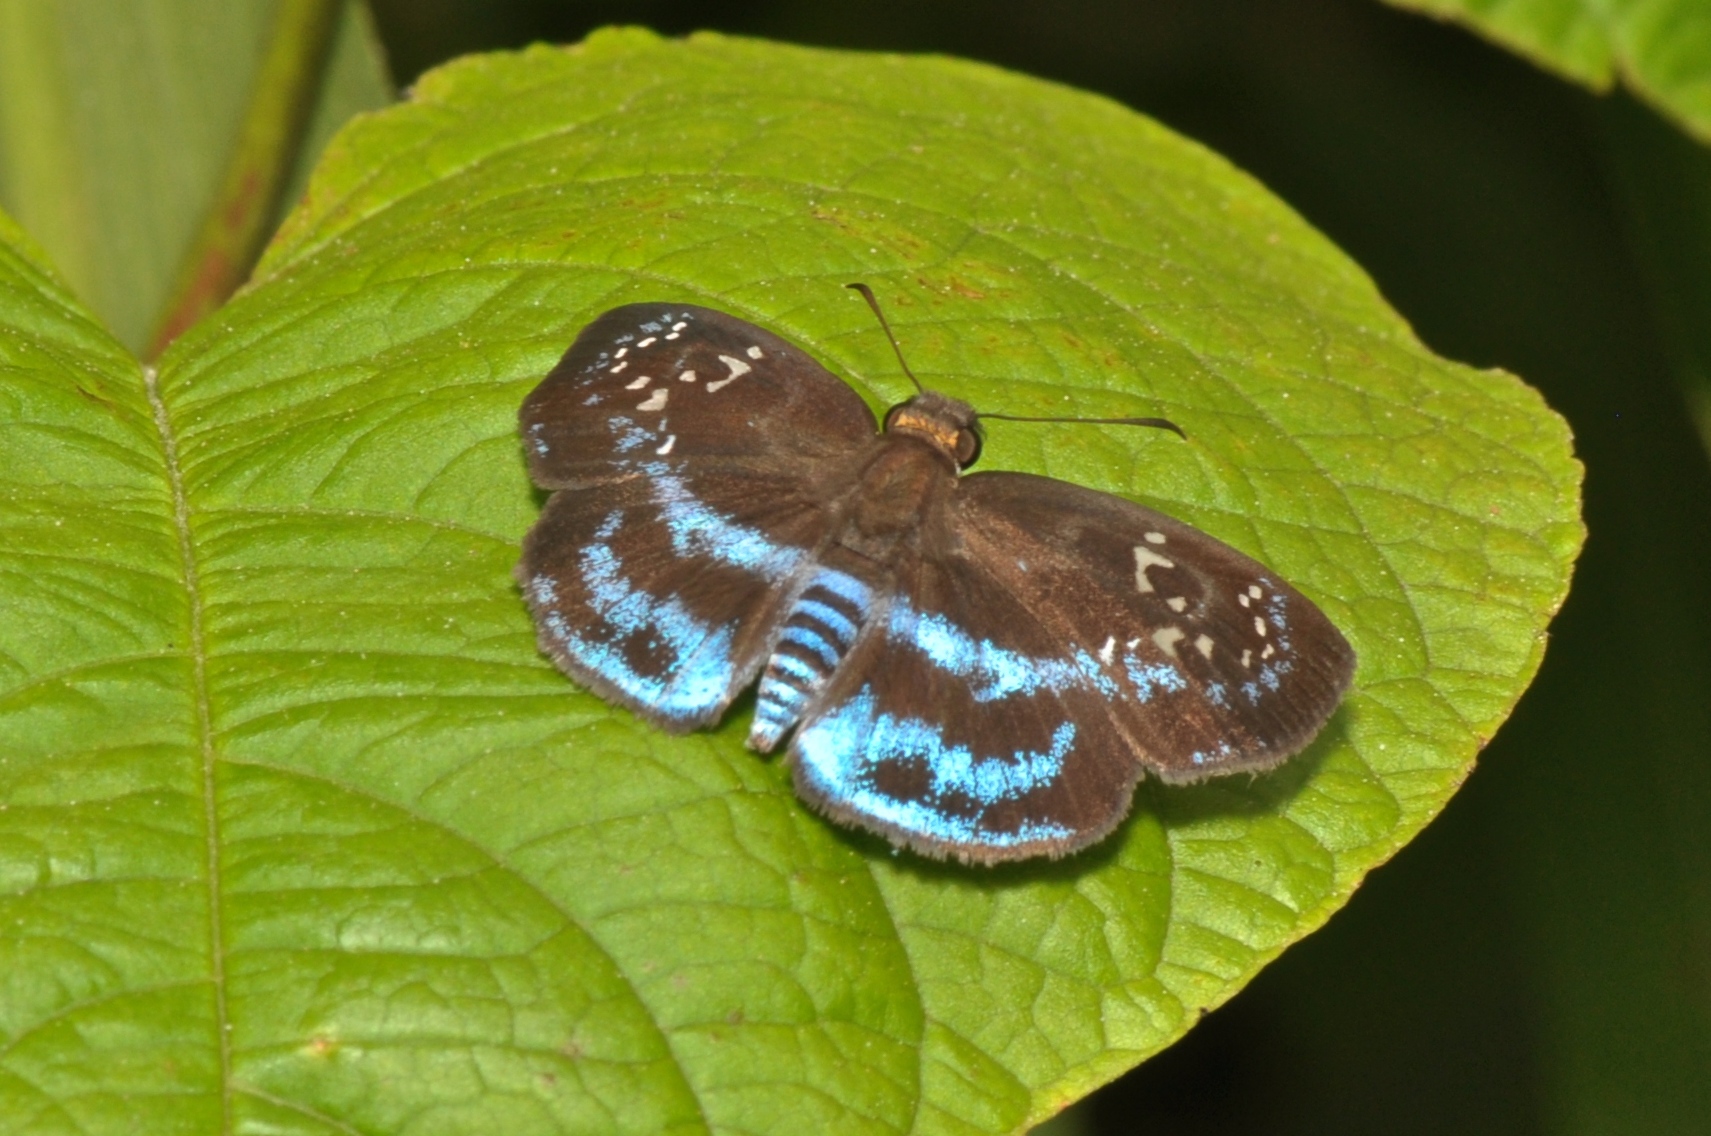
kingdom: Animalia
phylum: Arthropoda
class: Insecta
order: Lepidoptera
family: Hesperiidae
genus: Quadrus
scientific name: Quadrus contubernalis
